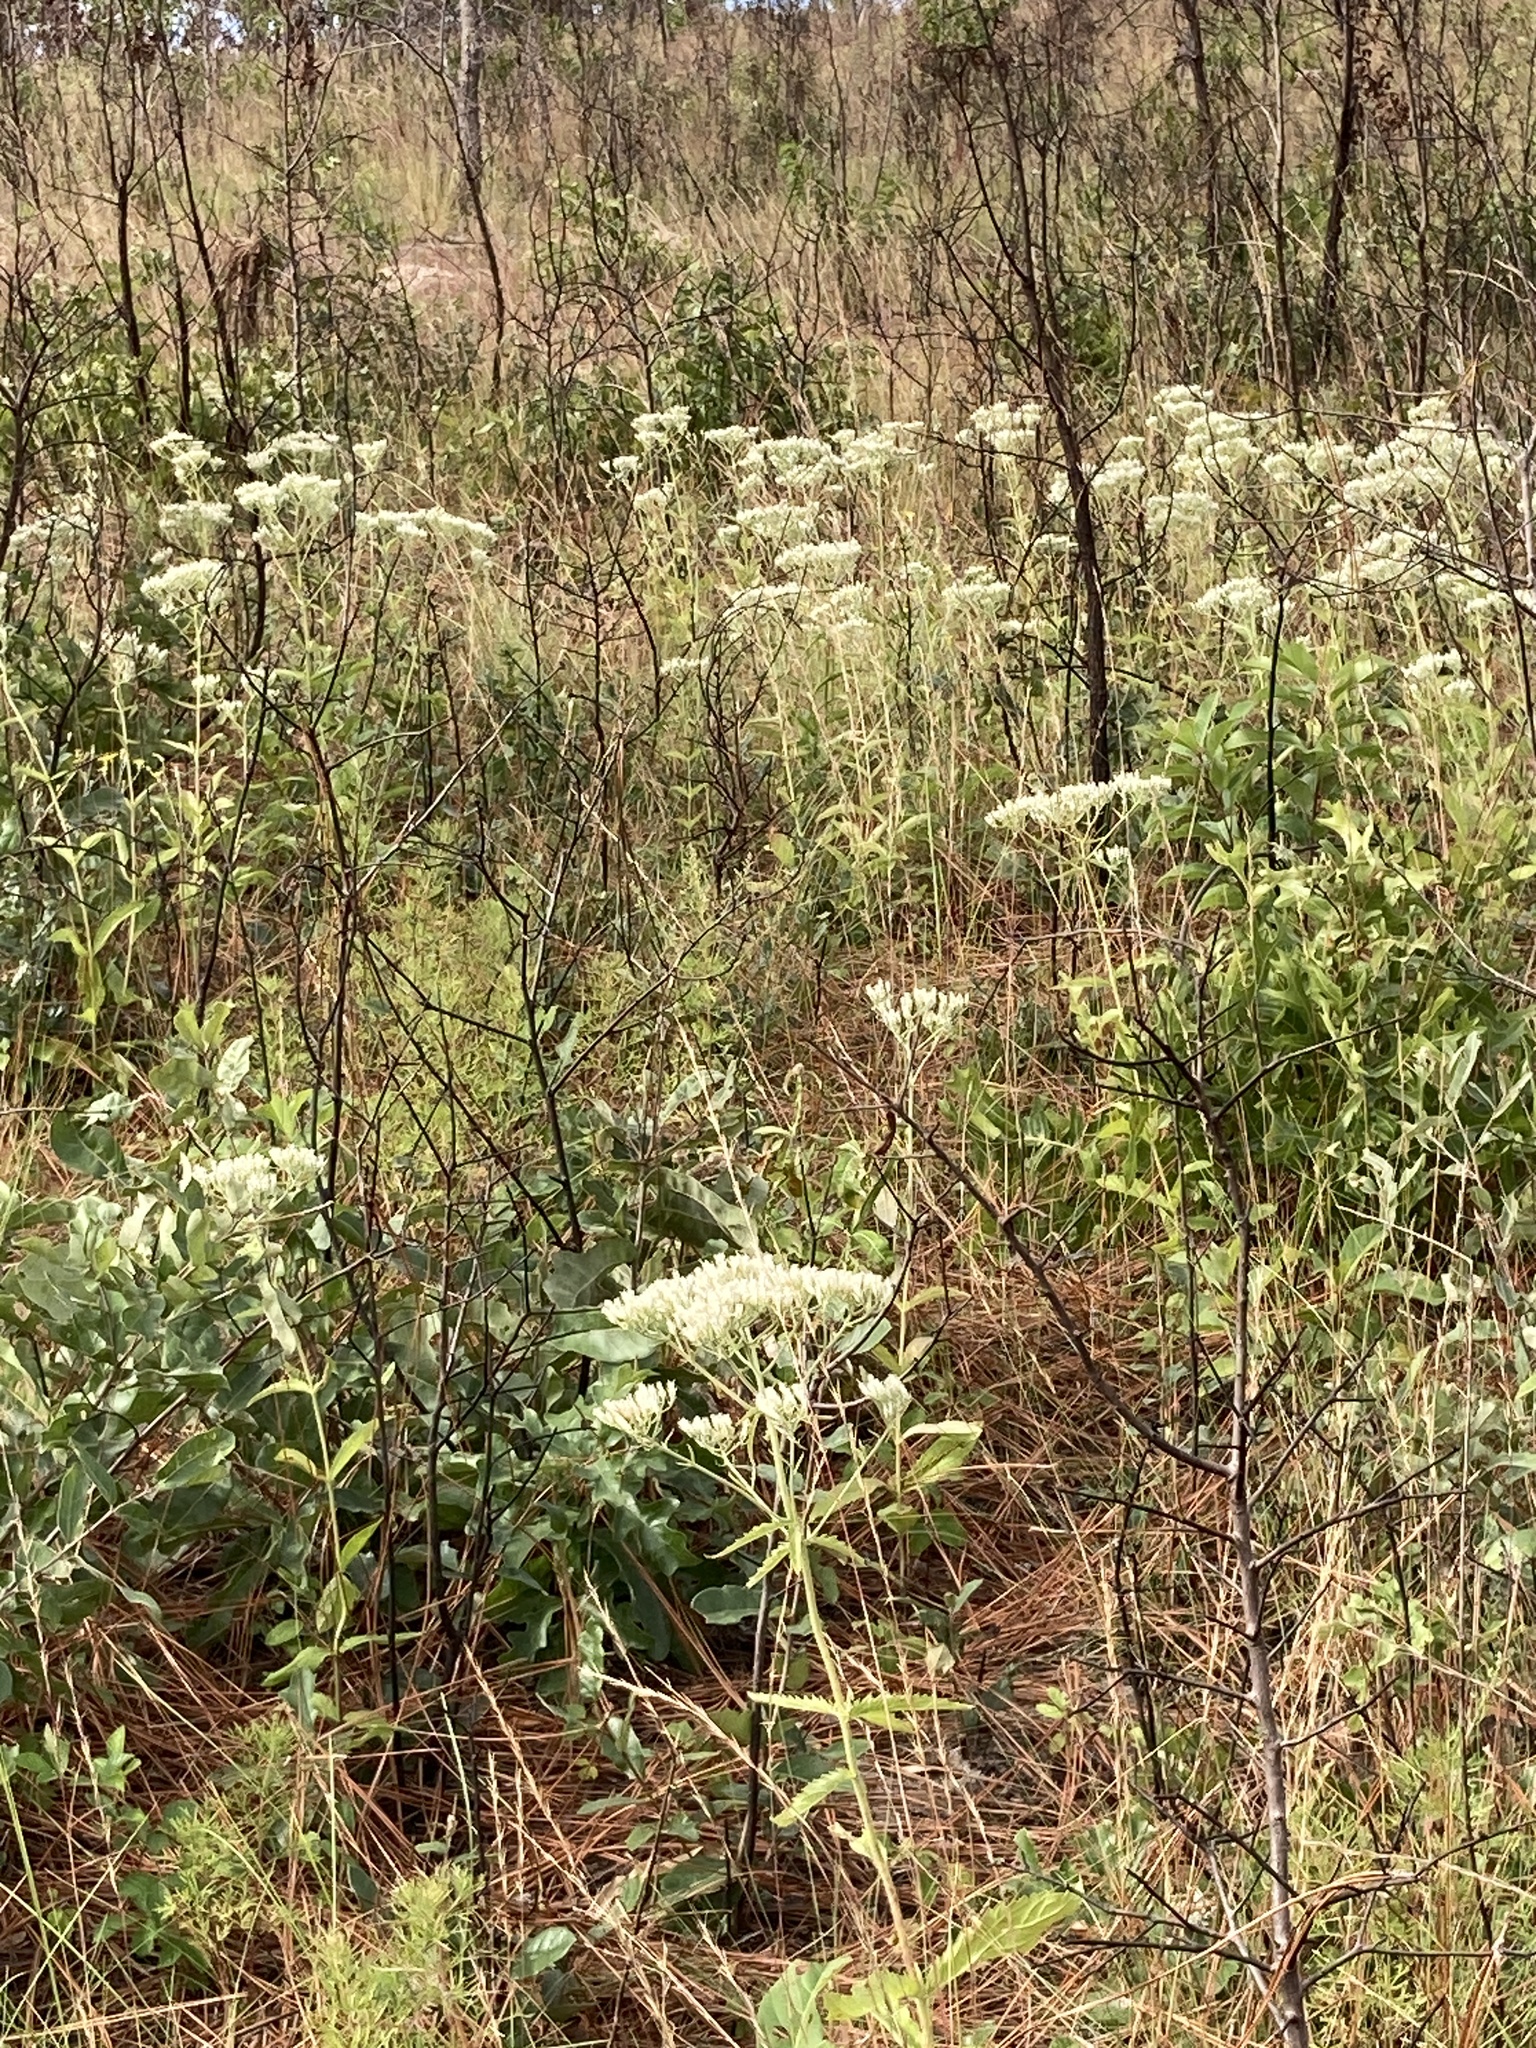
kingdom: Plantae
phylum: Tracheophyta
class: Magnoliopsida
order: Asterales
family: Asteraceae
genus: Eupatorium
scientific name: Eupatorium album
